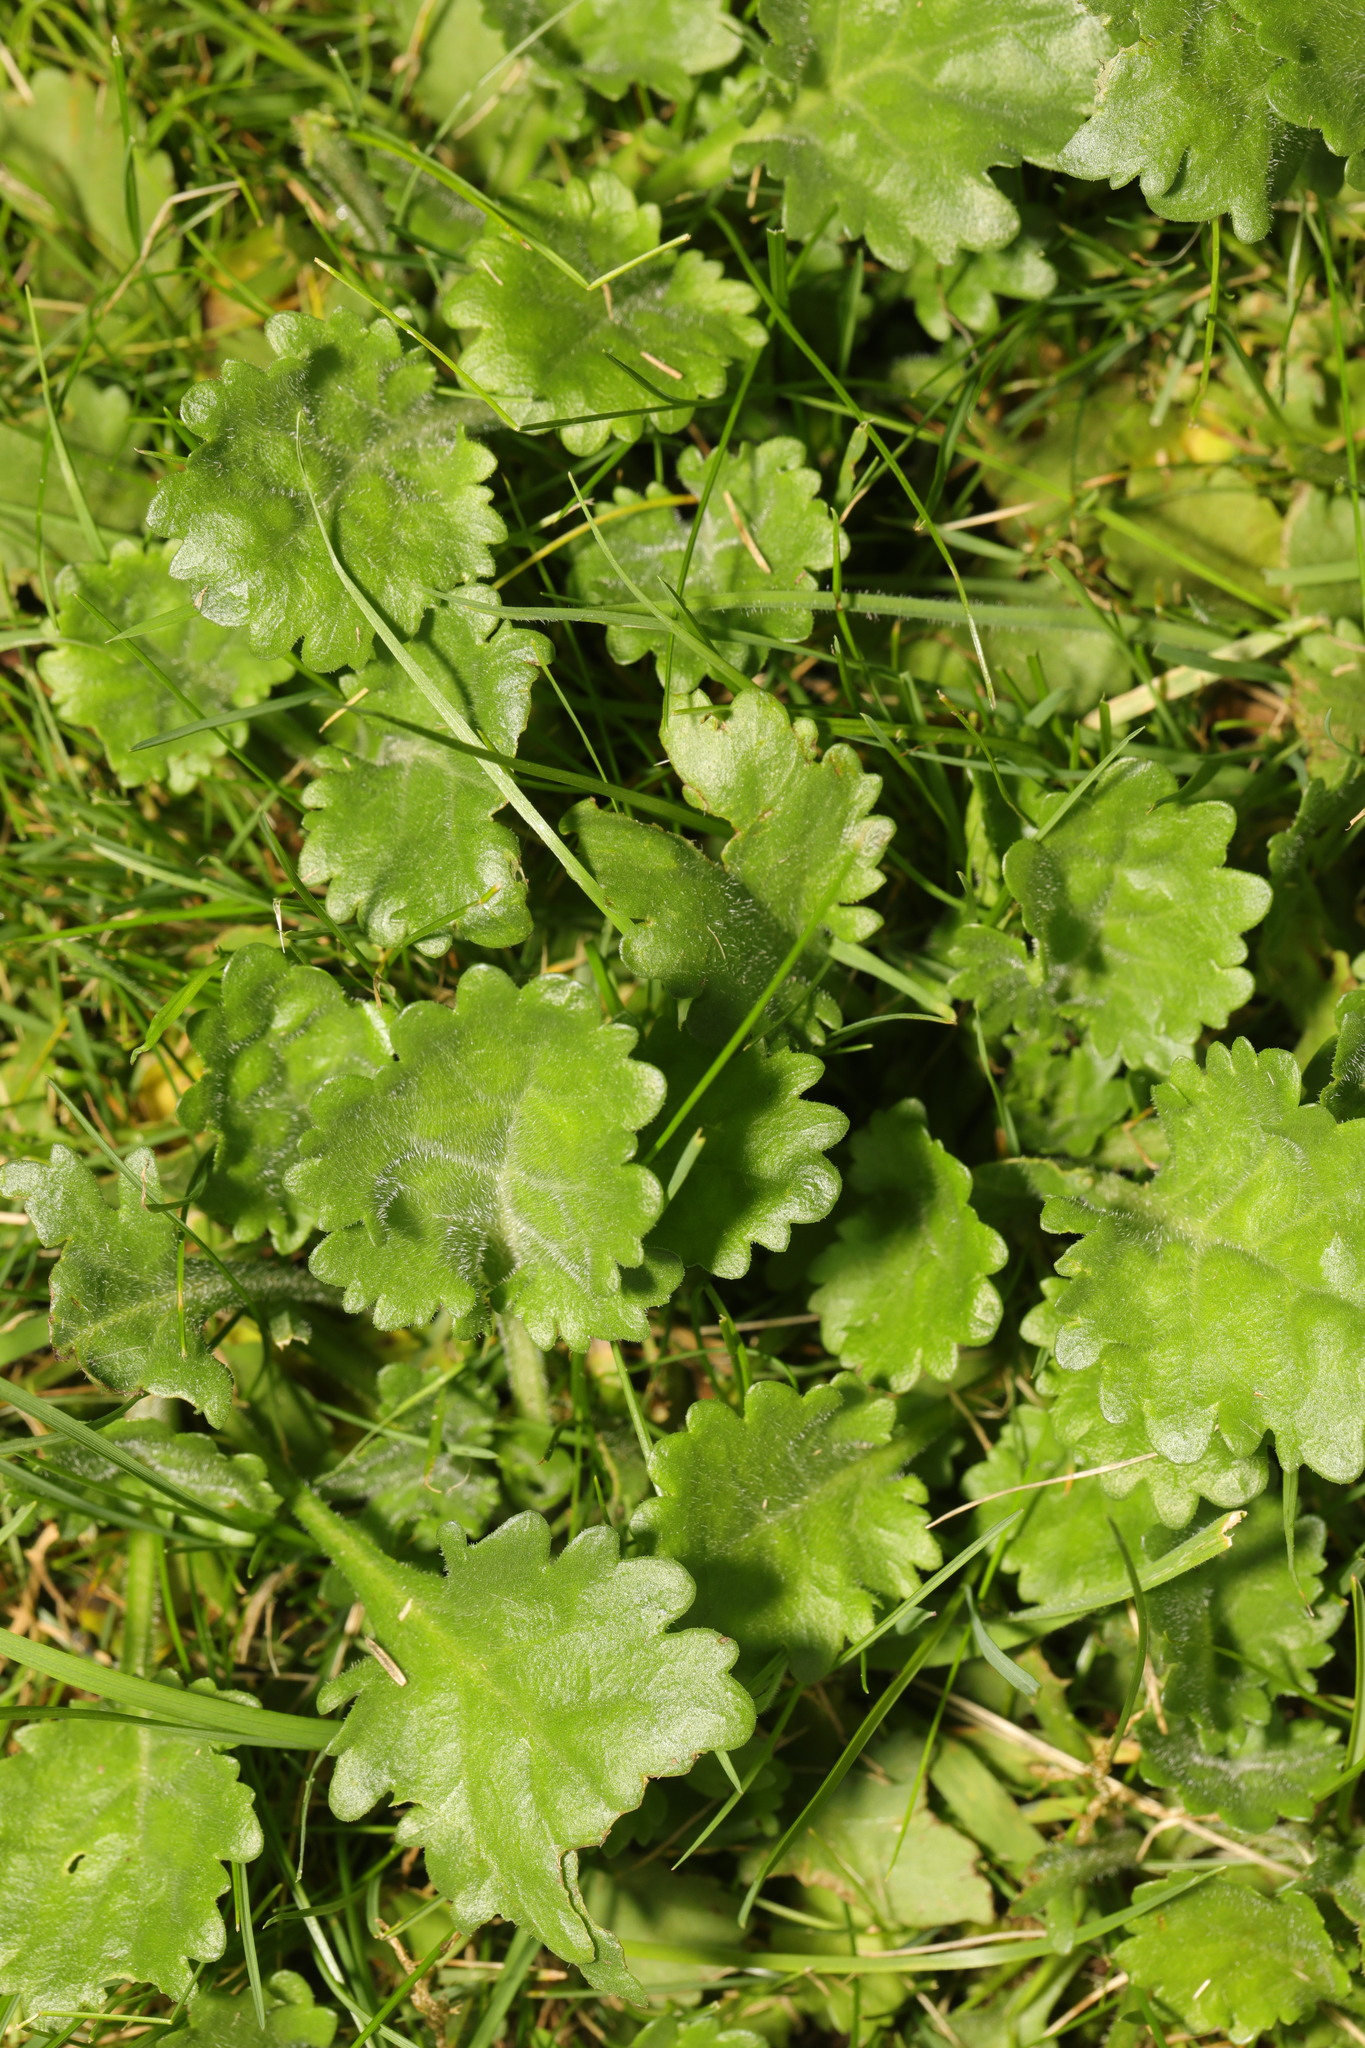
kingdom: Plantae
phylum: Tracheophyta
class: Magnoliopsida
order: Asterales
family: Asteraceae
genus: Leucanthemum
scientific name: Leucanthemum vulgare
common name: Oxeye daisy
